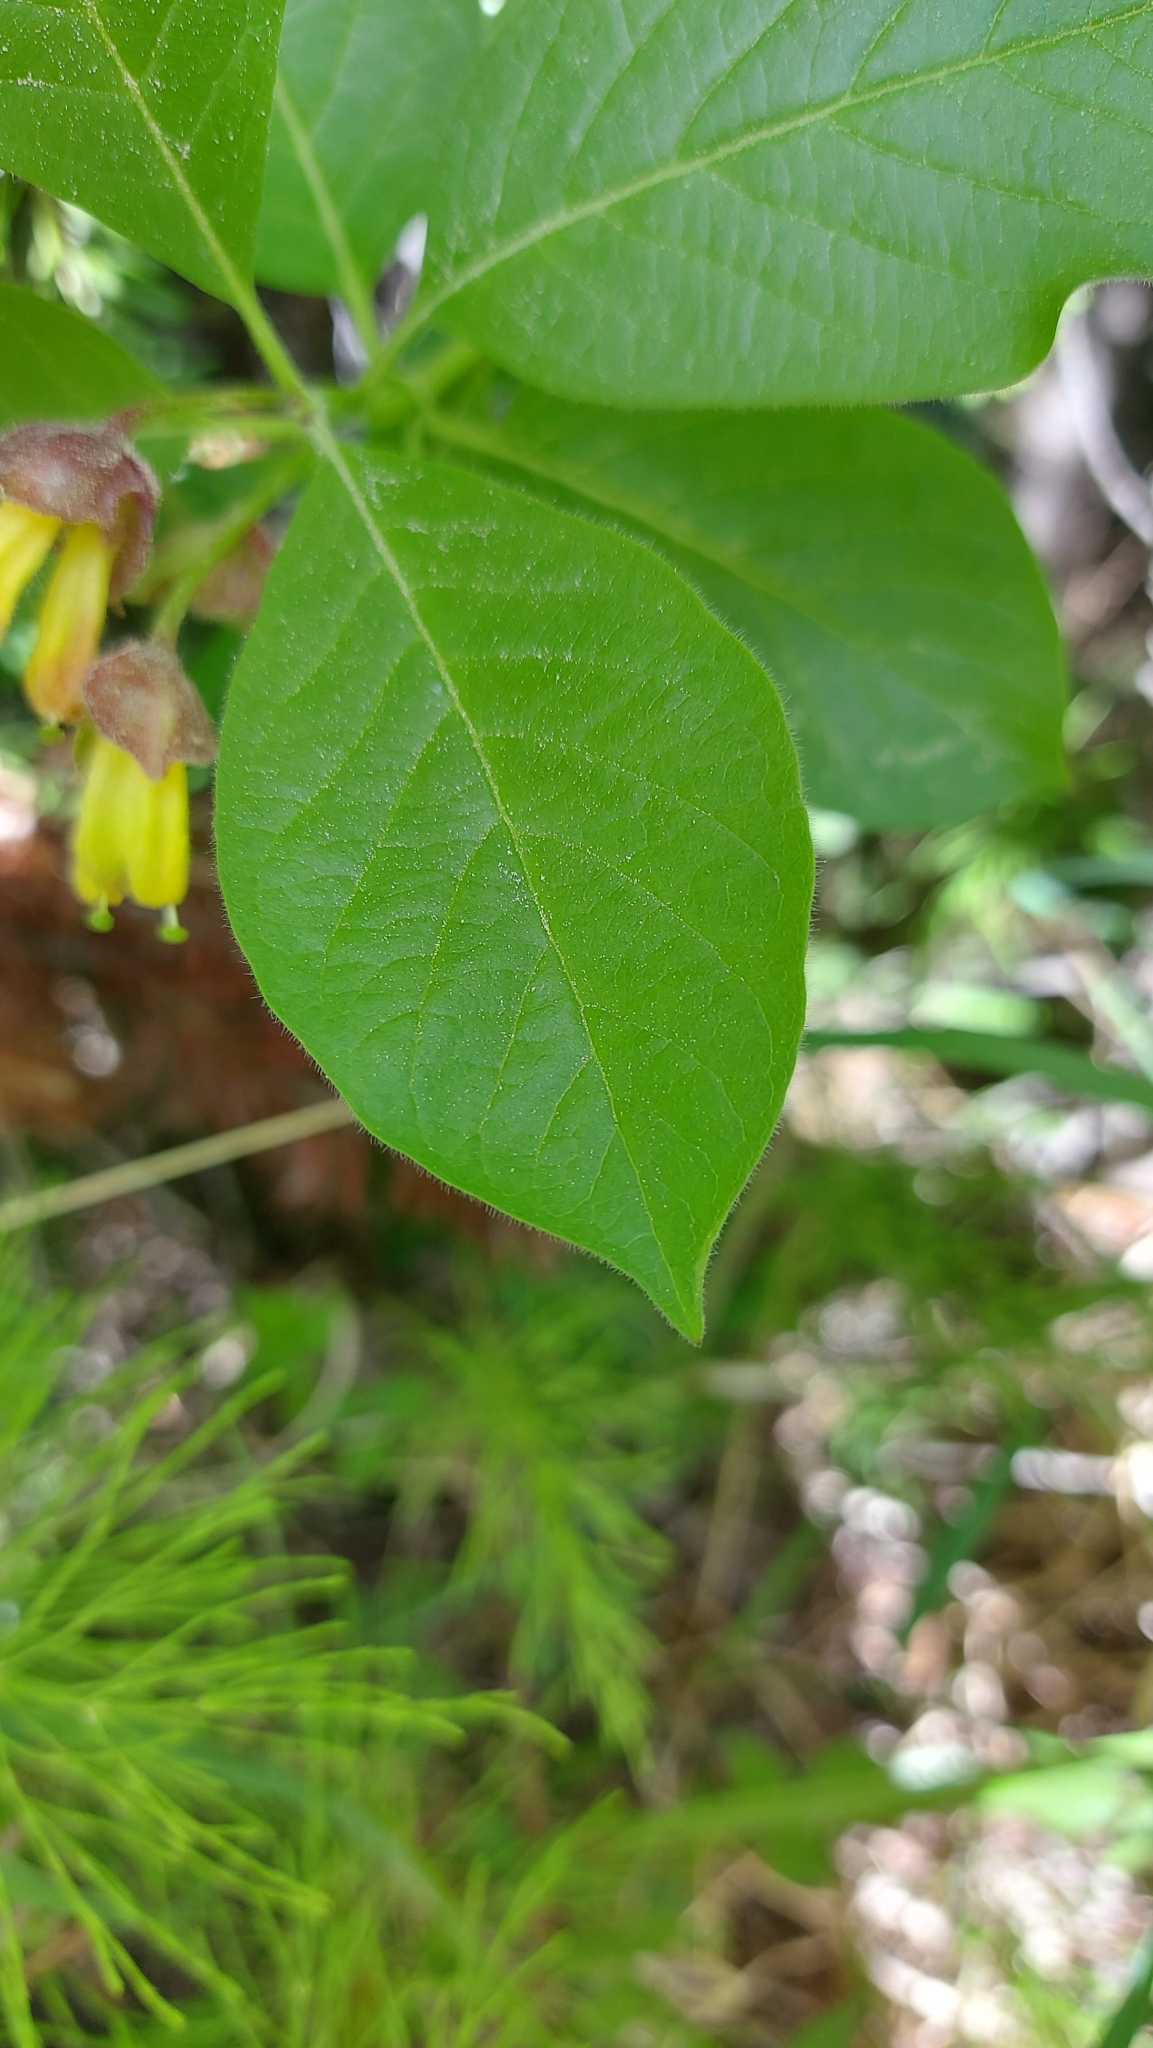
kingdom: Plantae
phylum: Tracheophyta
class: Magnoliopsida
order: Dipsacales
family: Caprifoliaceae
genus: Lonicera
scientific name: Lonicera involucrata
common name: Californian honeysuckle
